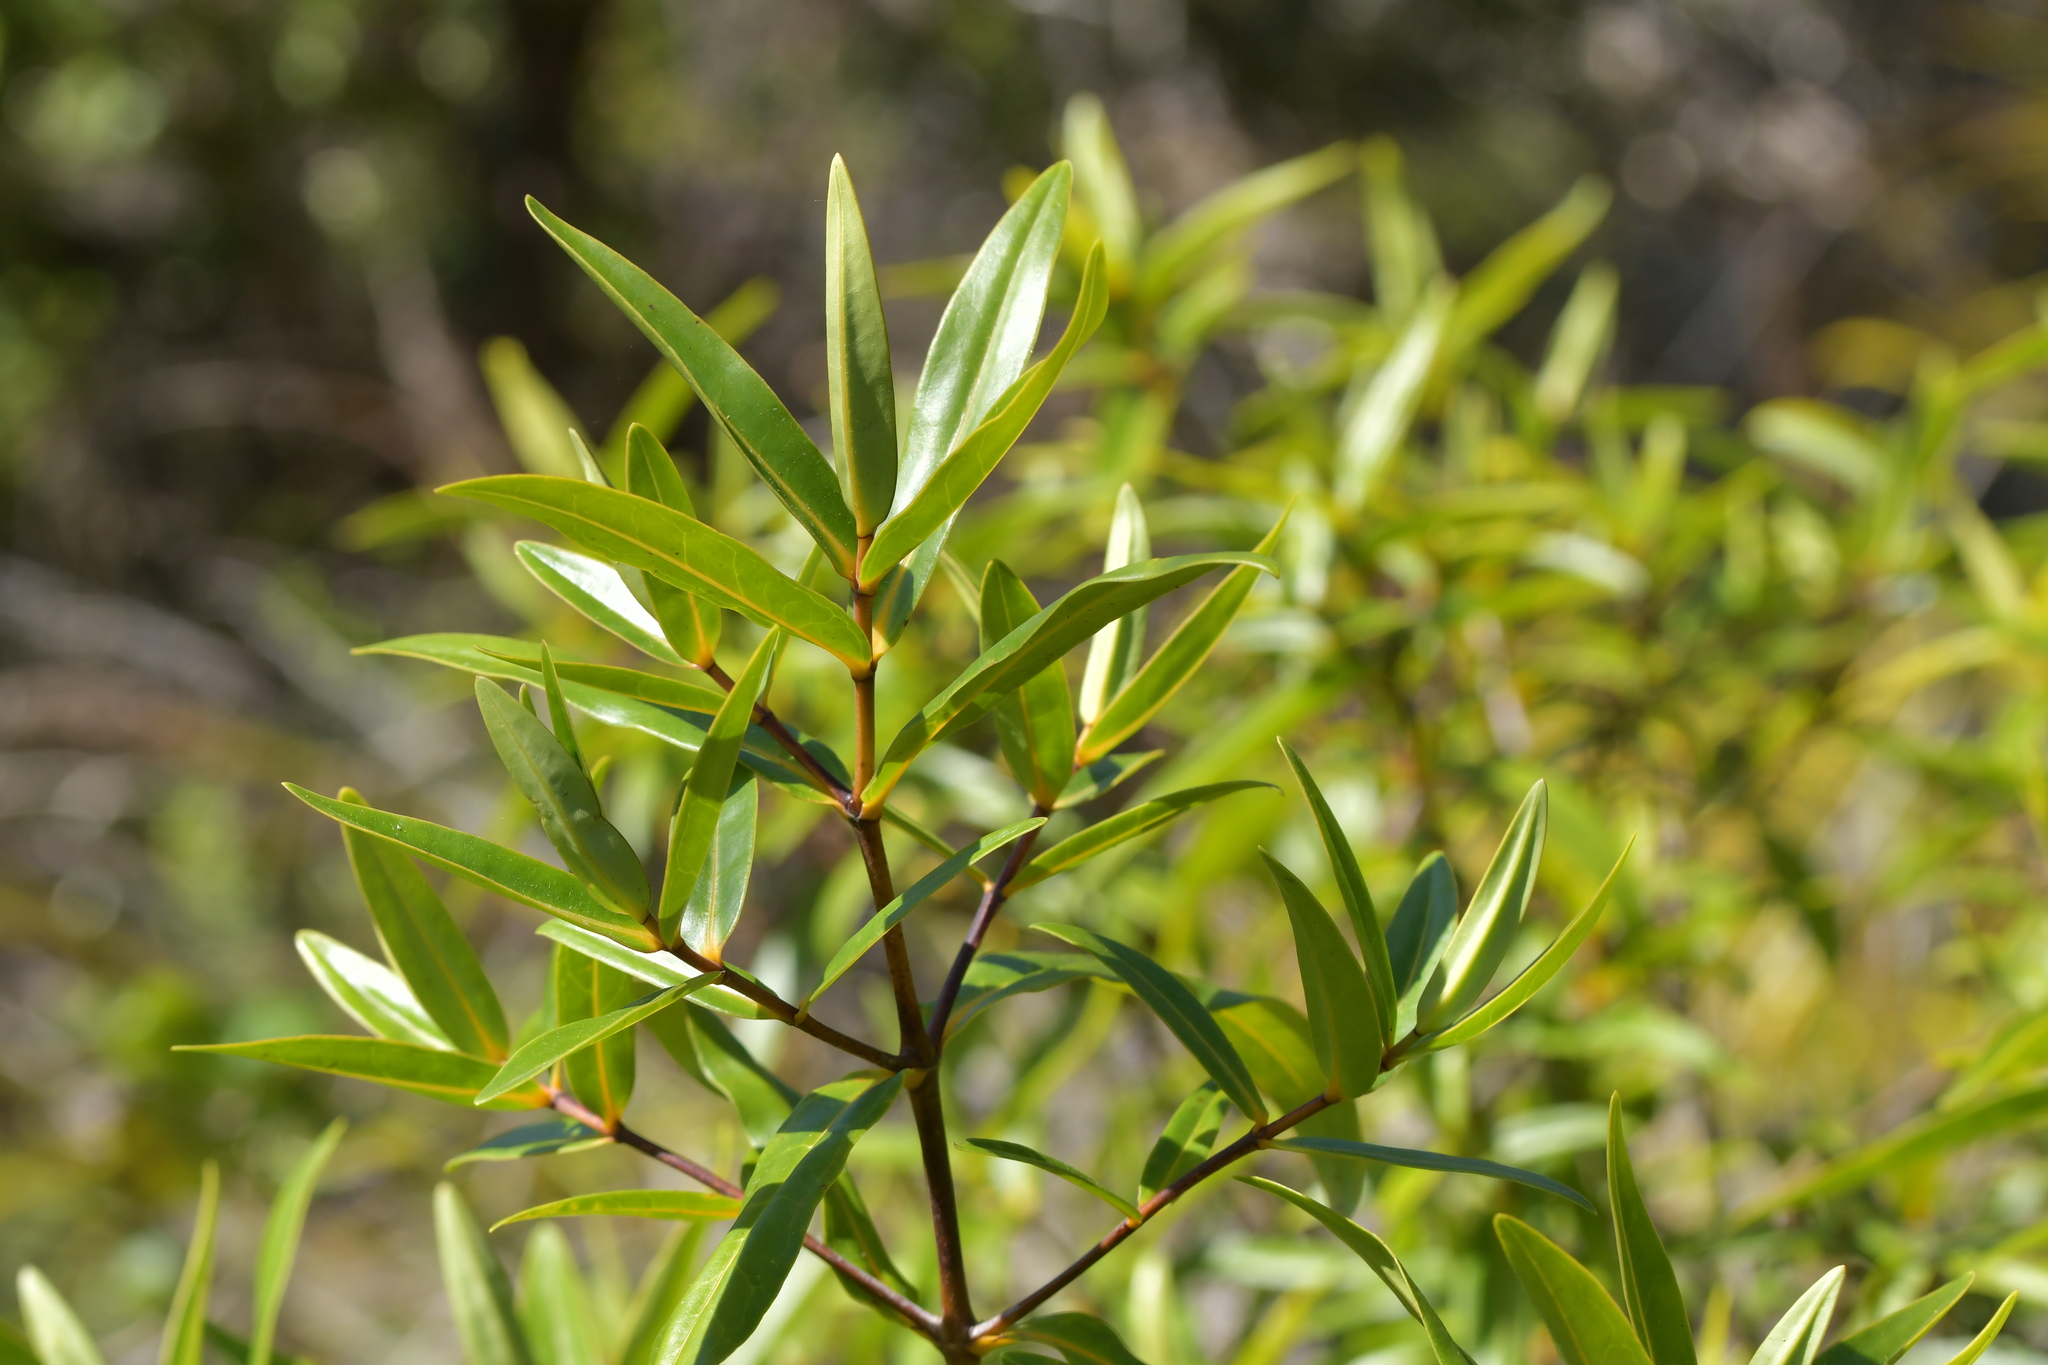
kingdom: Plantae
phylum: Tracheophyta
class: Magnoliopsida
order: Lamiales
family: Plantaginaceae
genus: Veronica
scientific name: Veronica ligustrifolia
